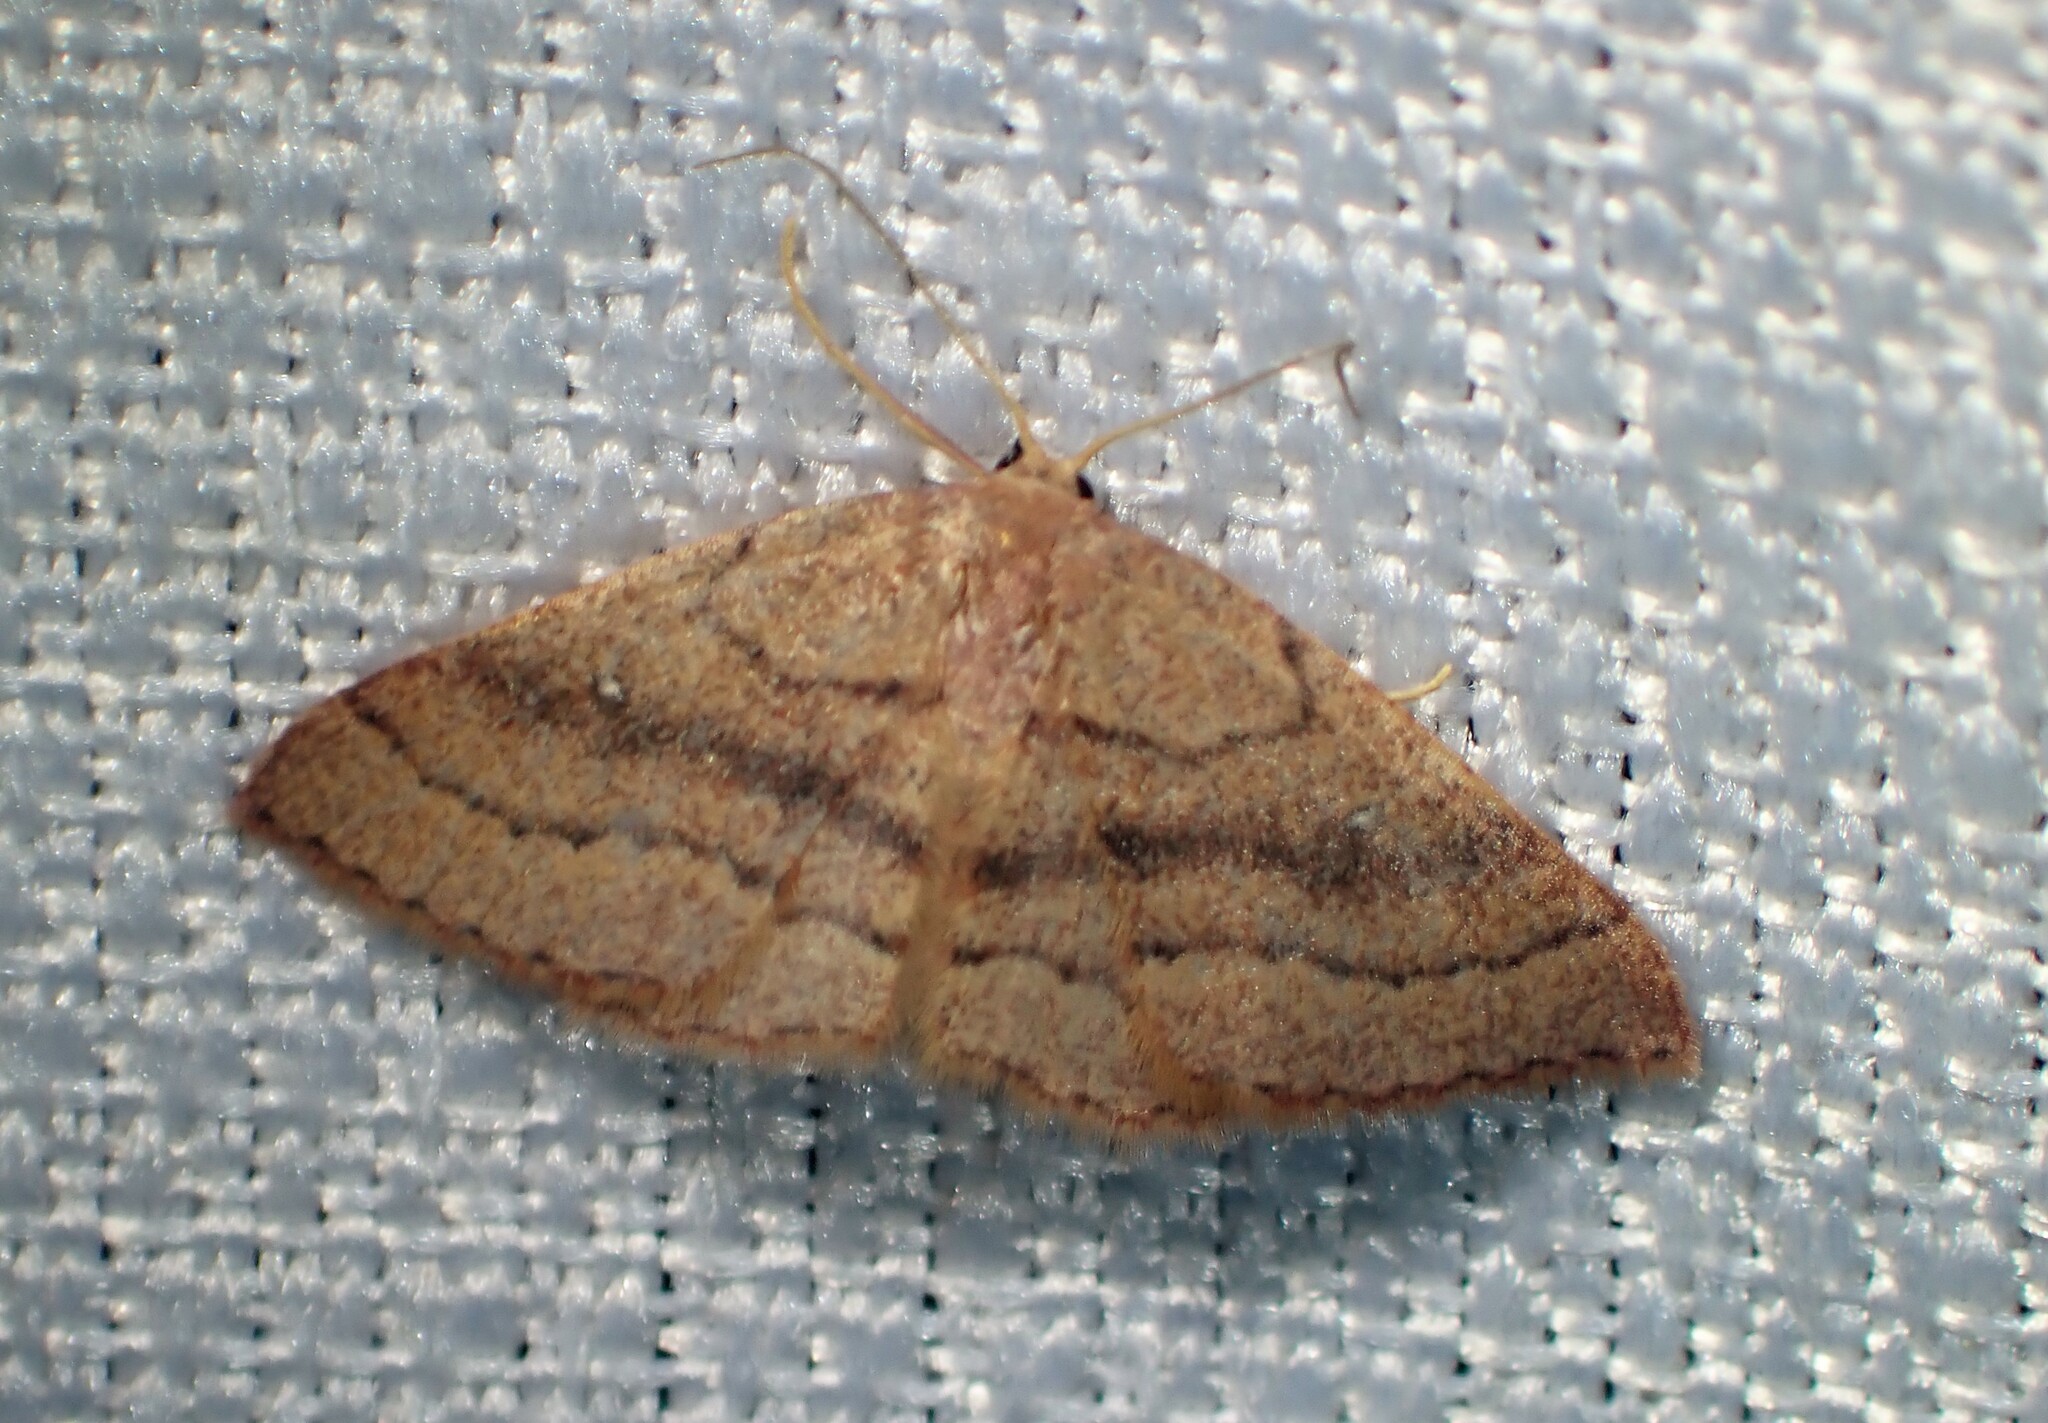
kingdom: Animalia
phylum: Arthropoda
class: Insecta
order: Lepidoptera
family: Geometridae
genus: Cyclophora
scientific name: Cyclophora azorensis
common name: Geometer moth
